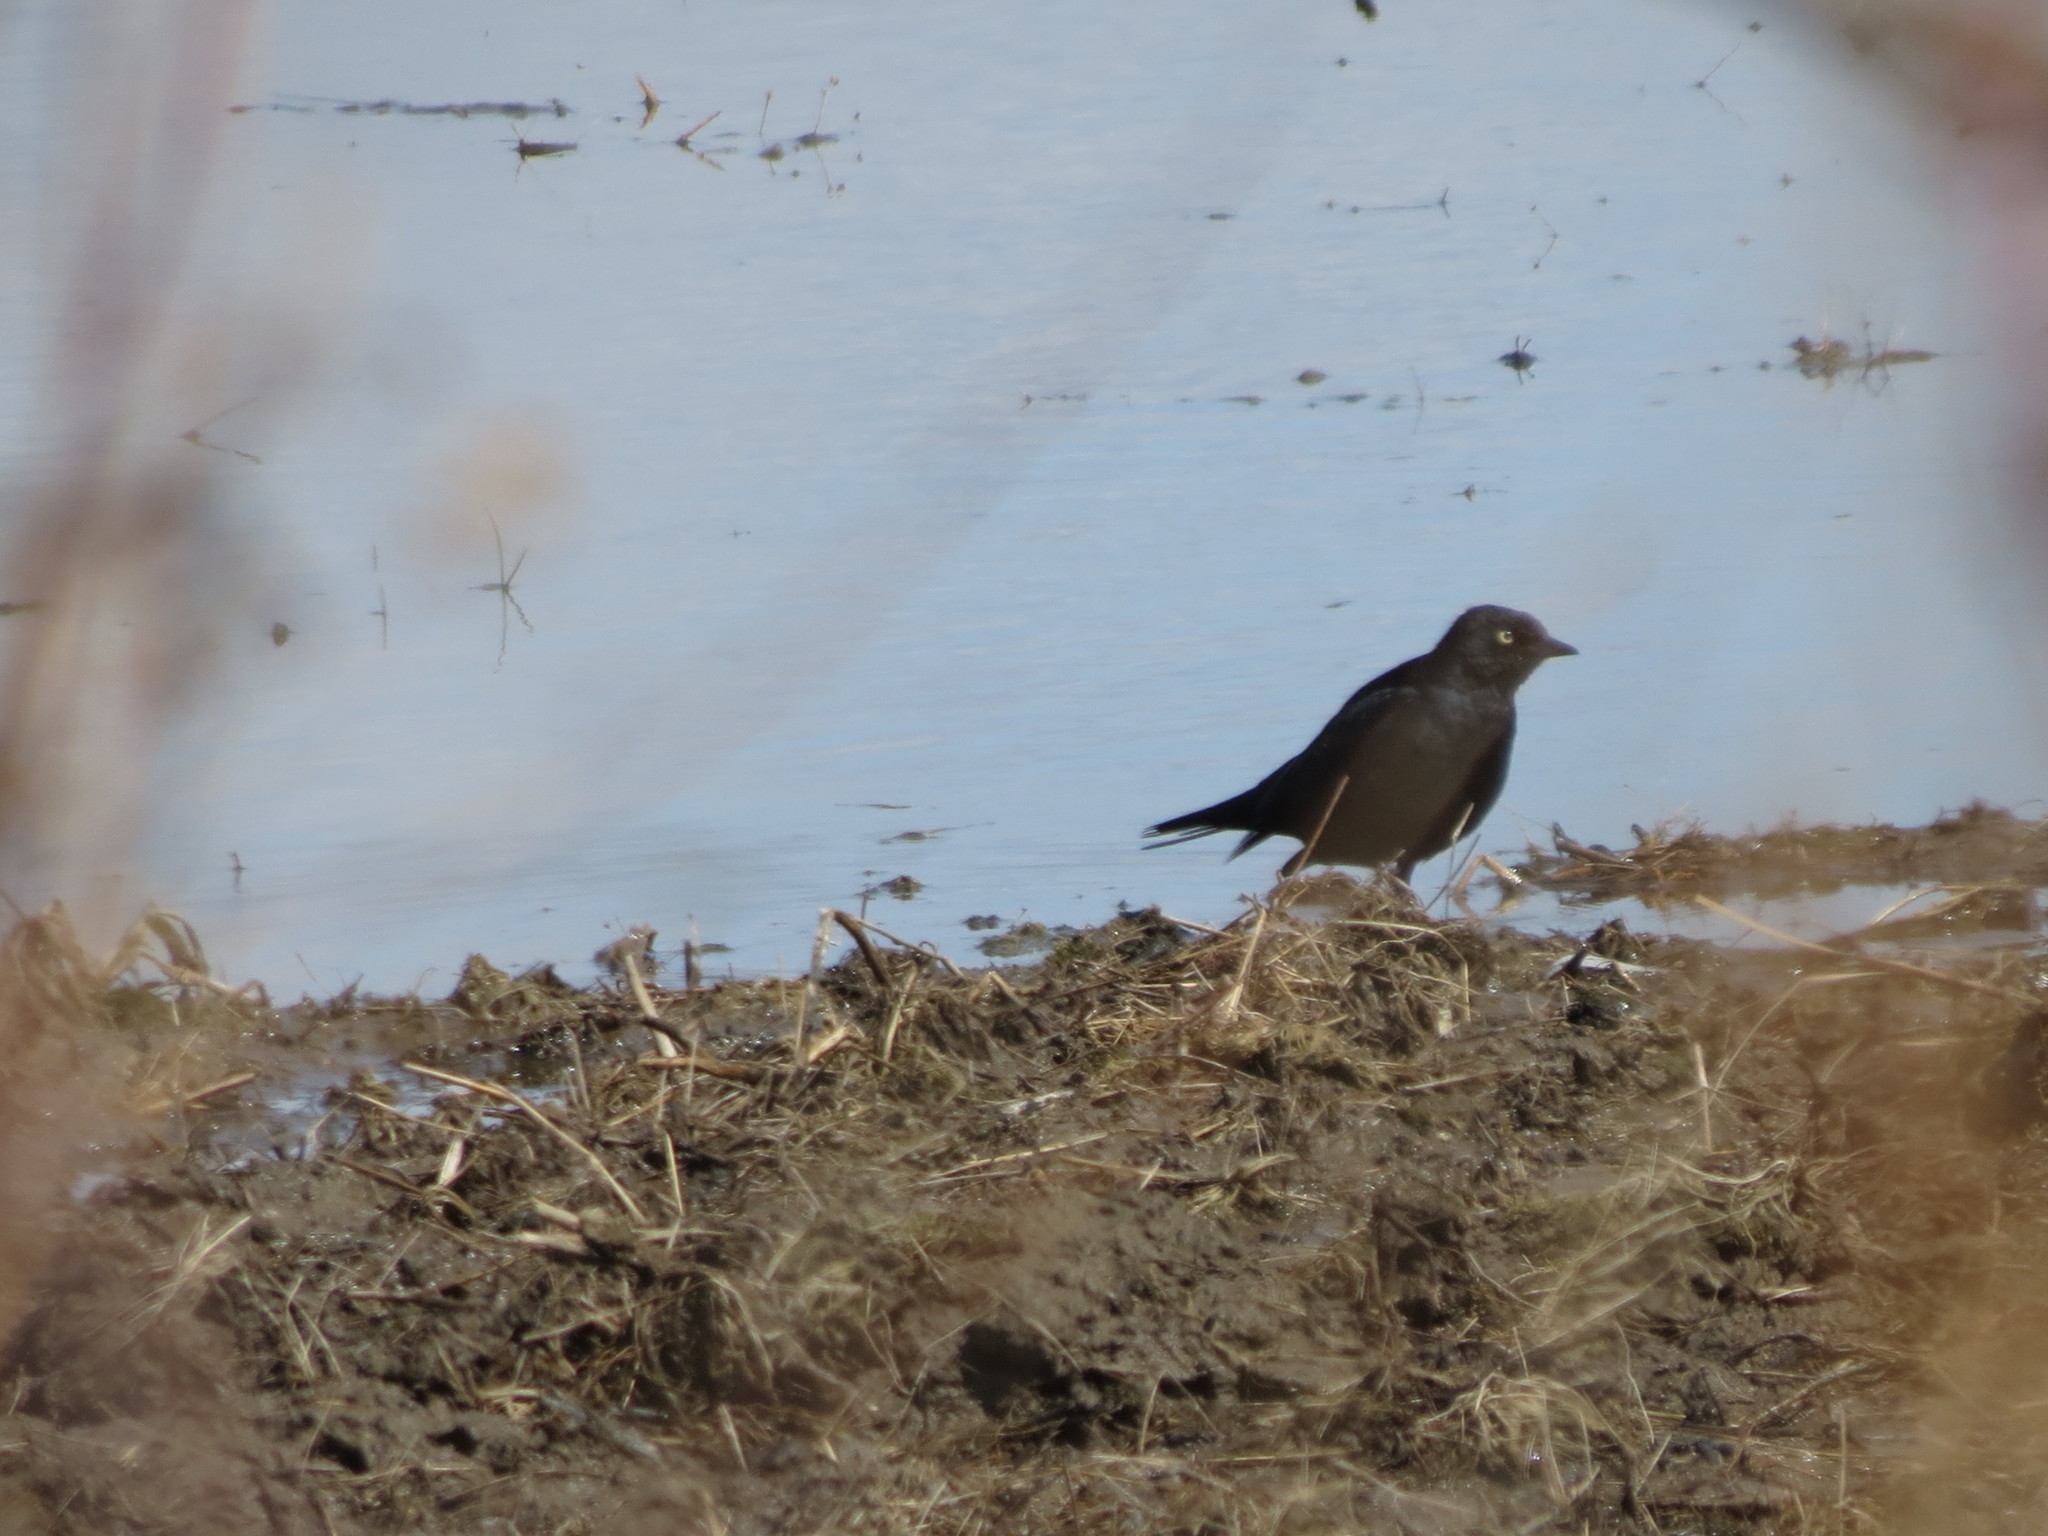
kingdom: Animalia
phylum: Chordata
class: Aves
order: Passeriformes
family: Icteridae
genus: Euphagus
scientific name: Euphagus carolinus
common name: Rusty blackbird
